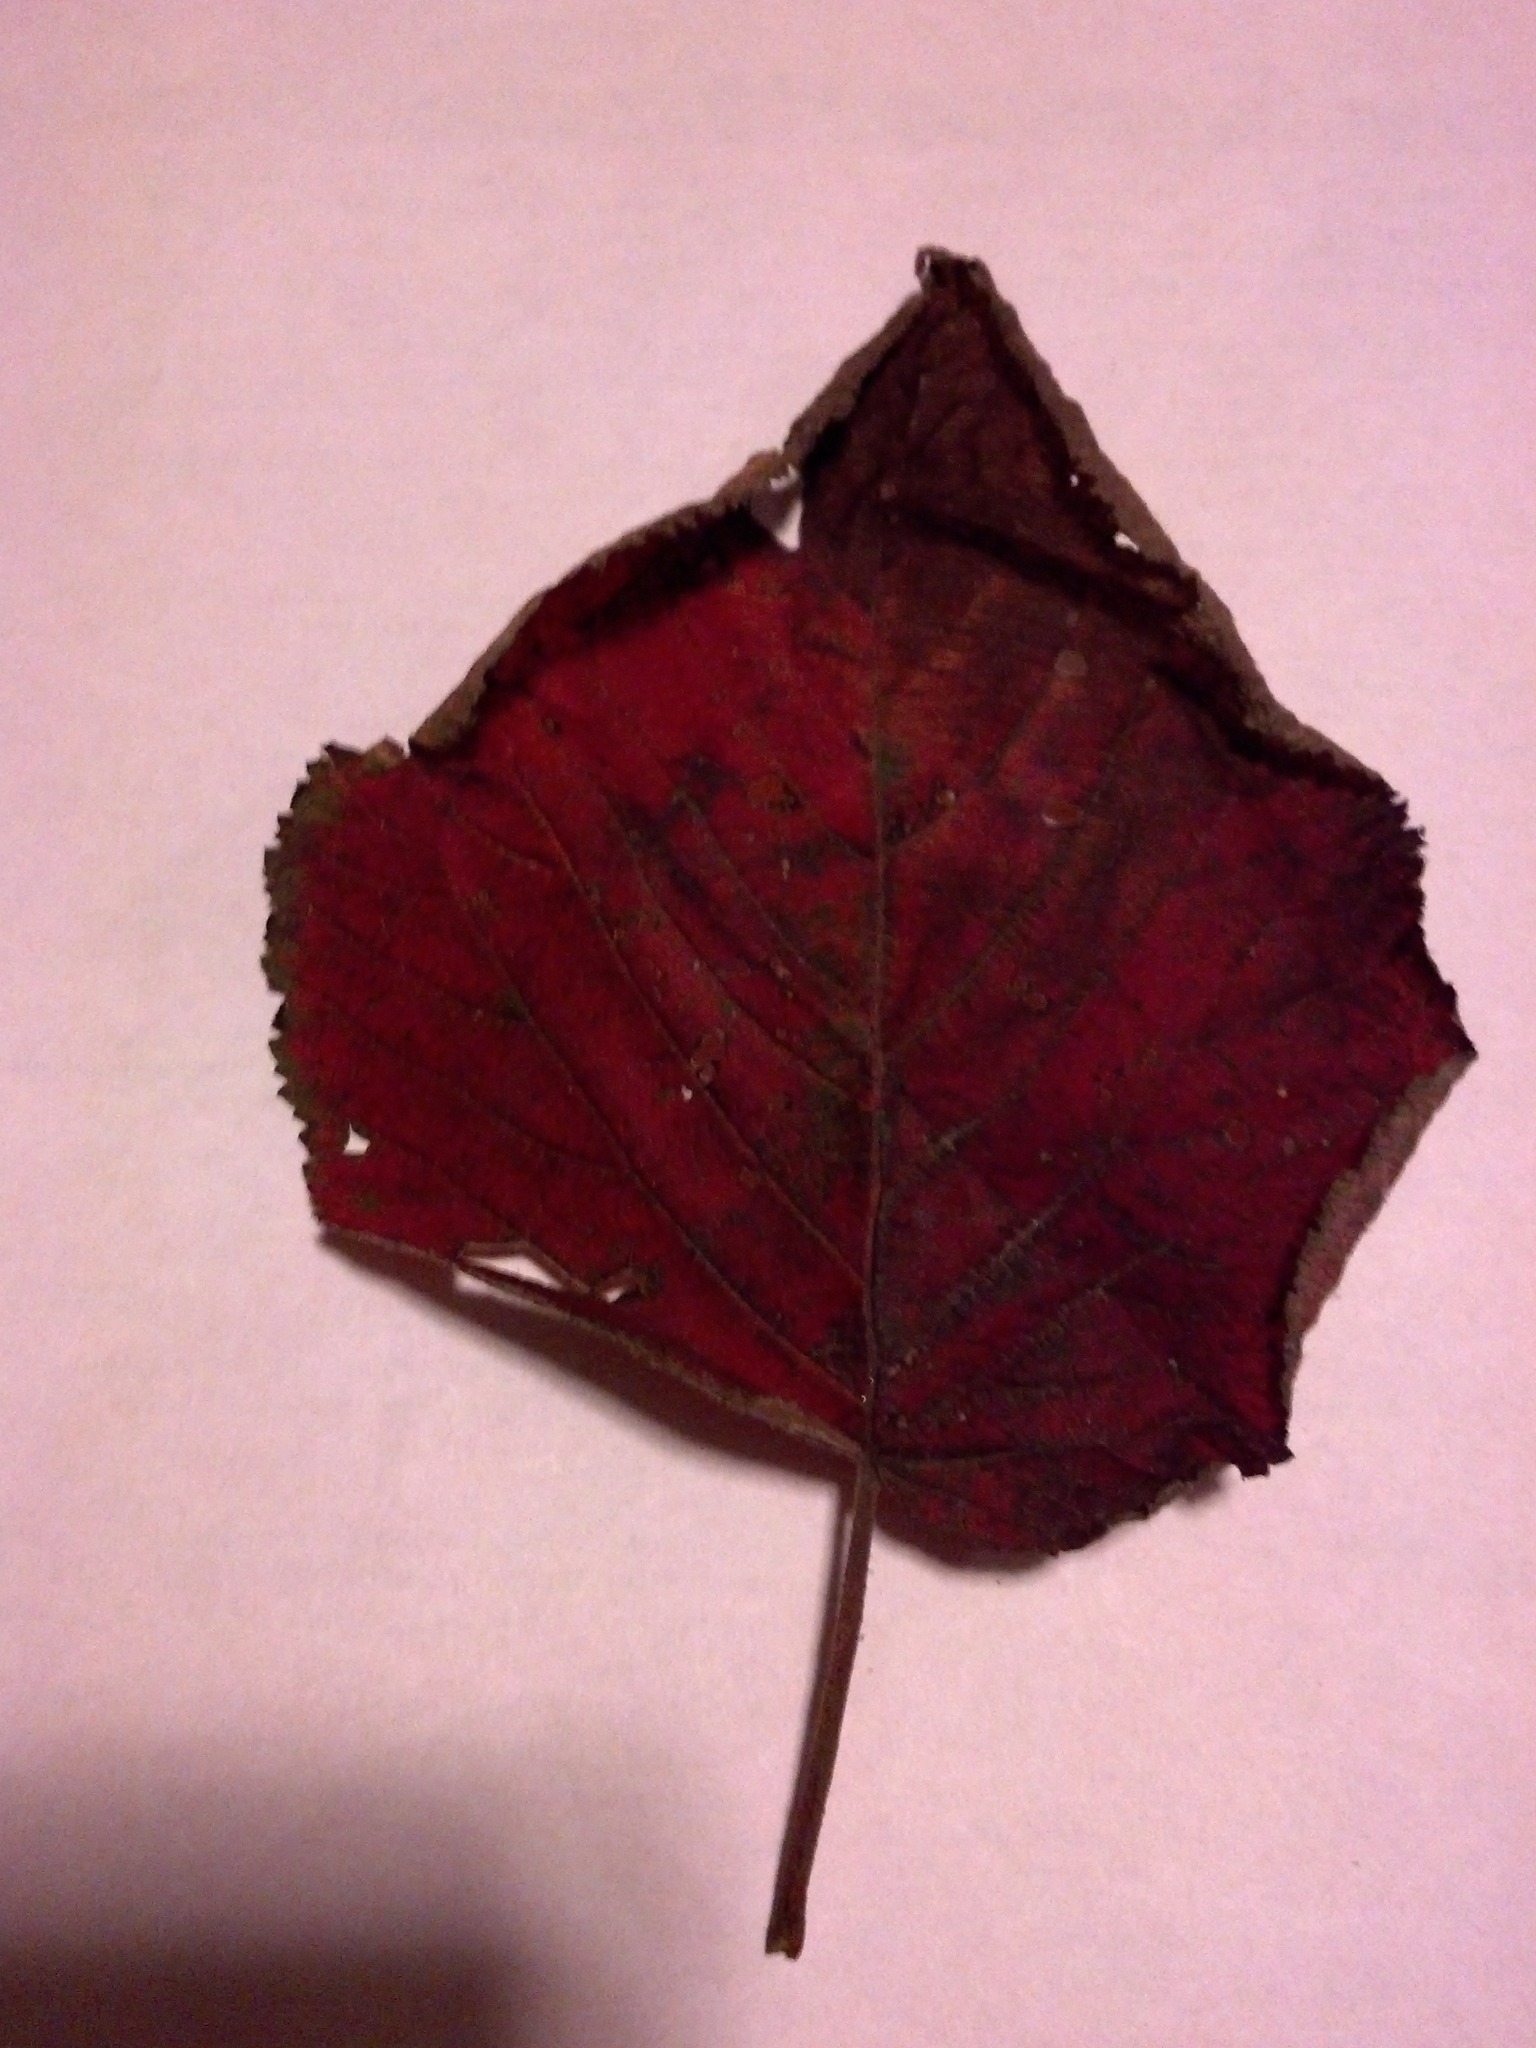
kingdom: Plantae
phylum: Tracheophyta
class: Magnoliopsida
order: Dipsacales
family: Viburnaceae
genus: Viburnum
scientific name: Viburnum lantanoides
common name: Hobblebush
